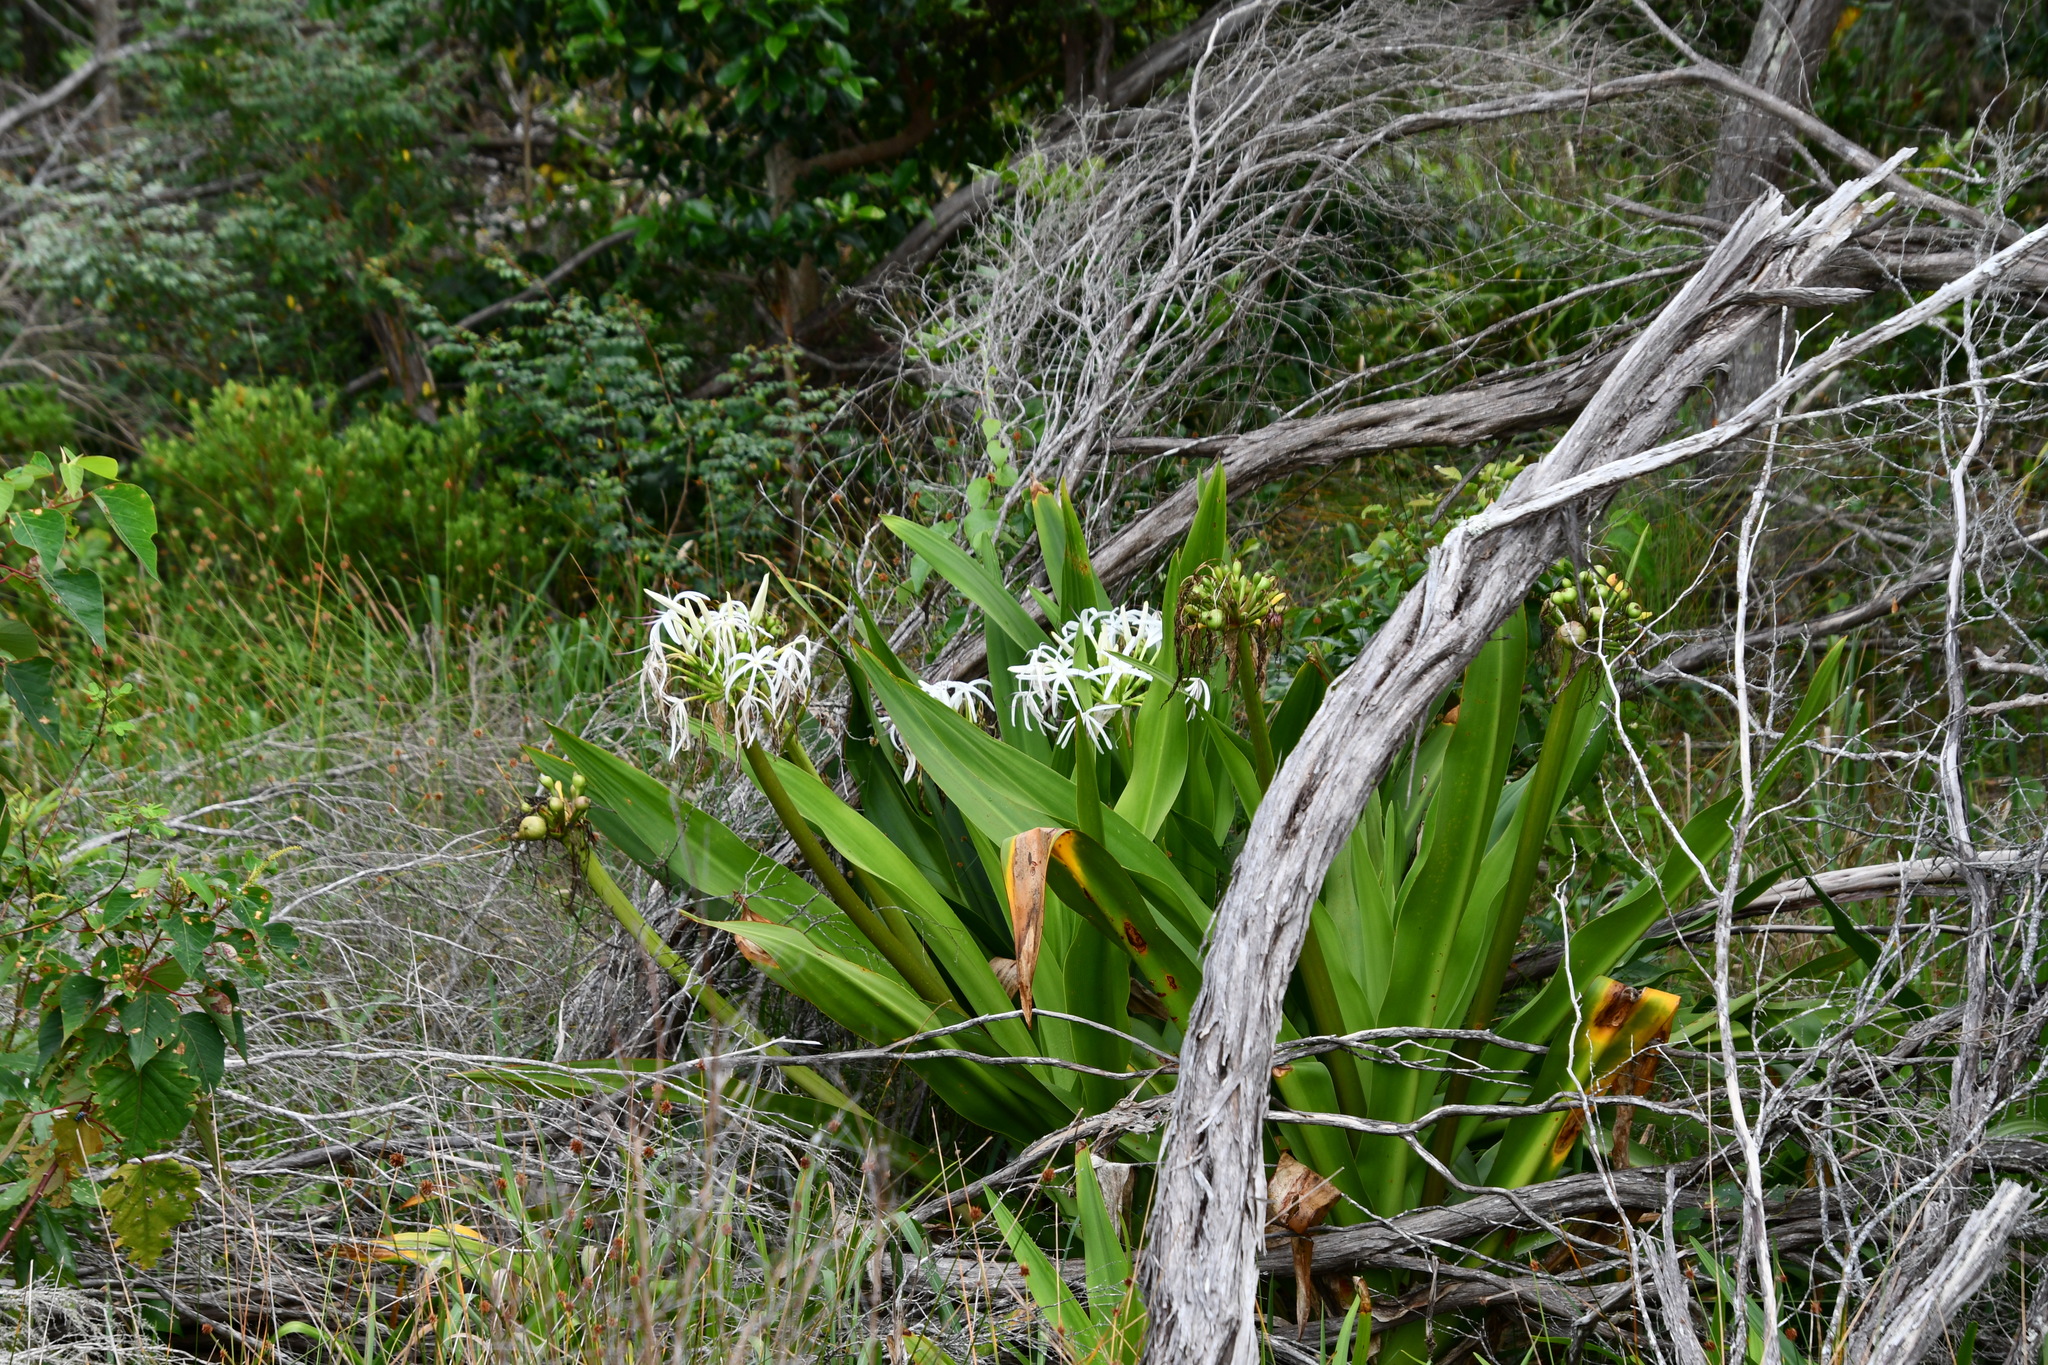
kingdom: Plantae
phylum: Tracheophyta
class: Liliopsida
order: Asparagales
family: Amaryllidaceae
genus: Crinum
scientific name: Crinum pedunculatum
